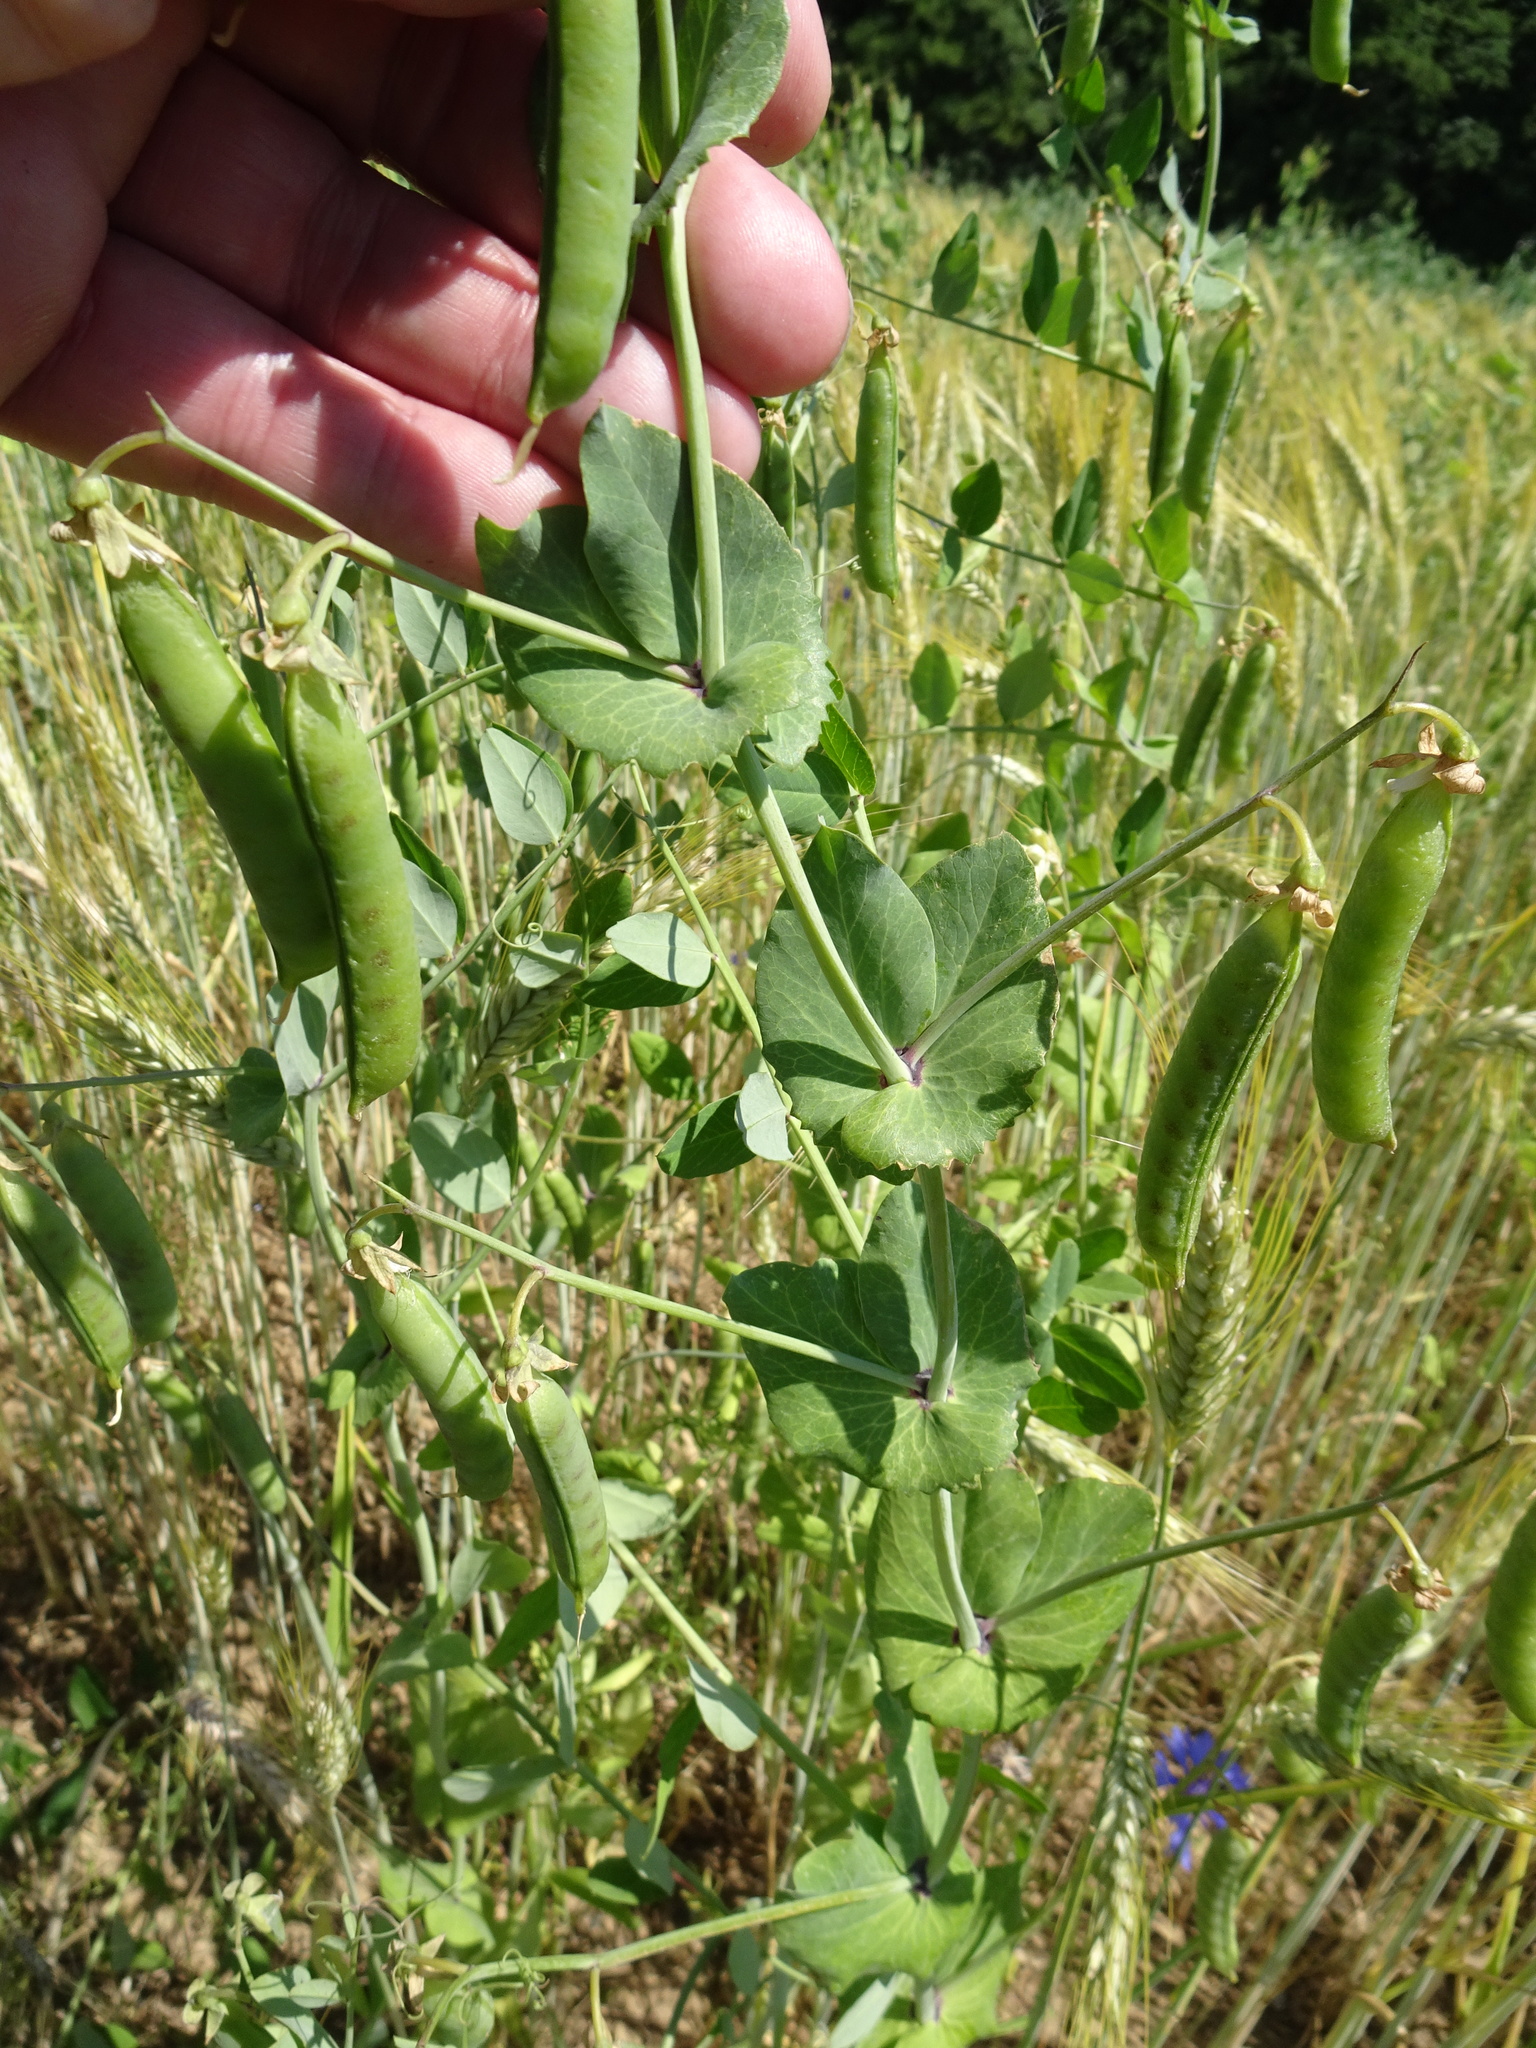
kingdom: Plantae
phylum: Tracheophyta
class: Magnoliopsida
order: Fabales
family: Fabaceae
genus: Lathyrus
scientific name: Lathyrus oleraceus
